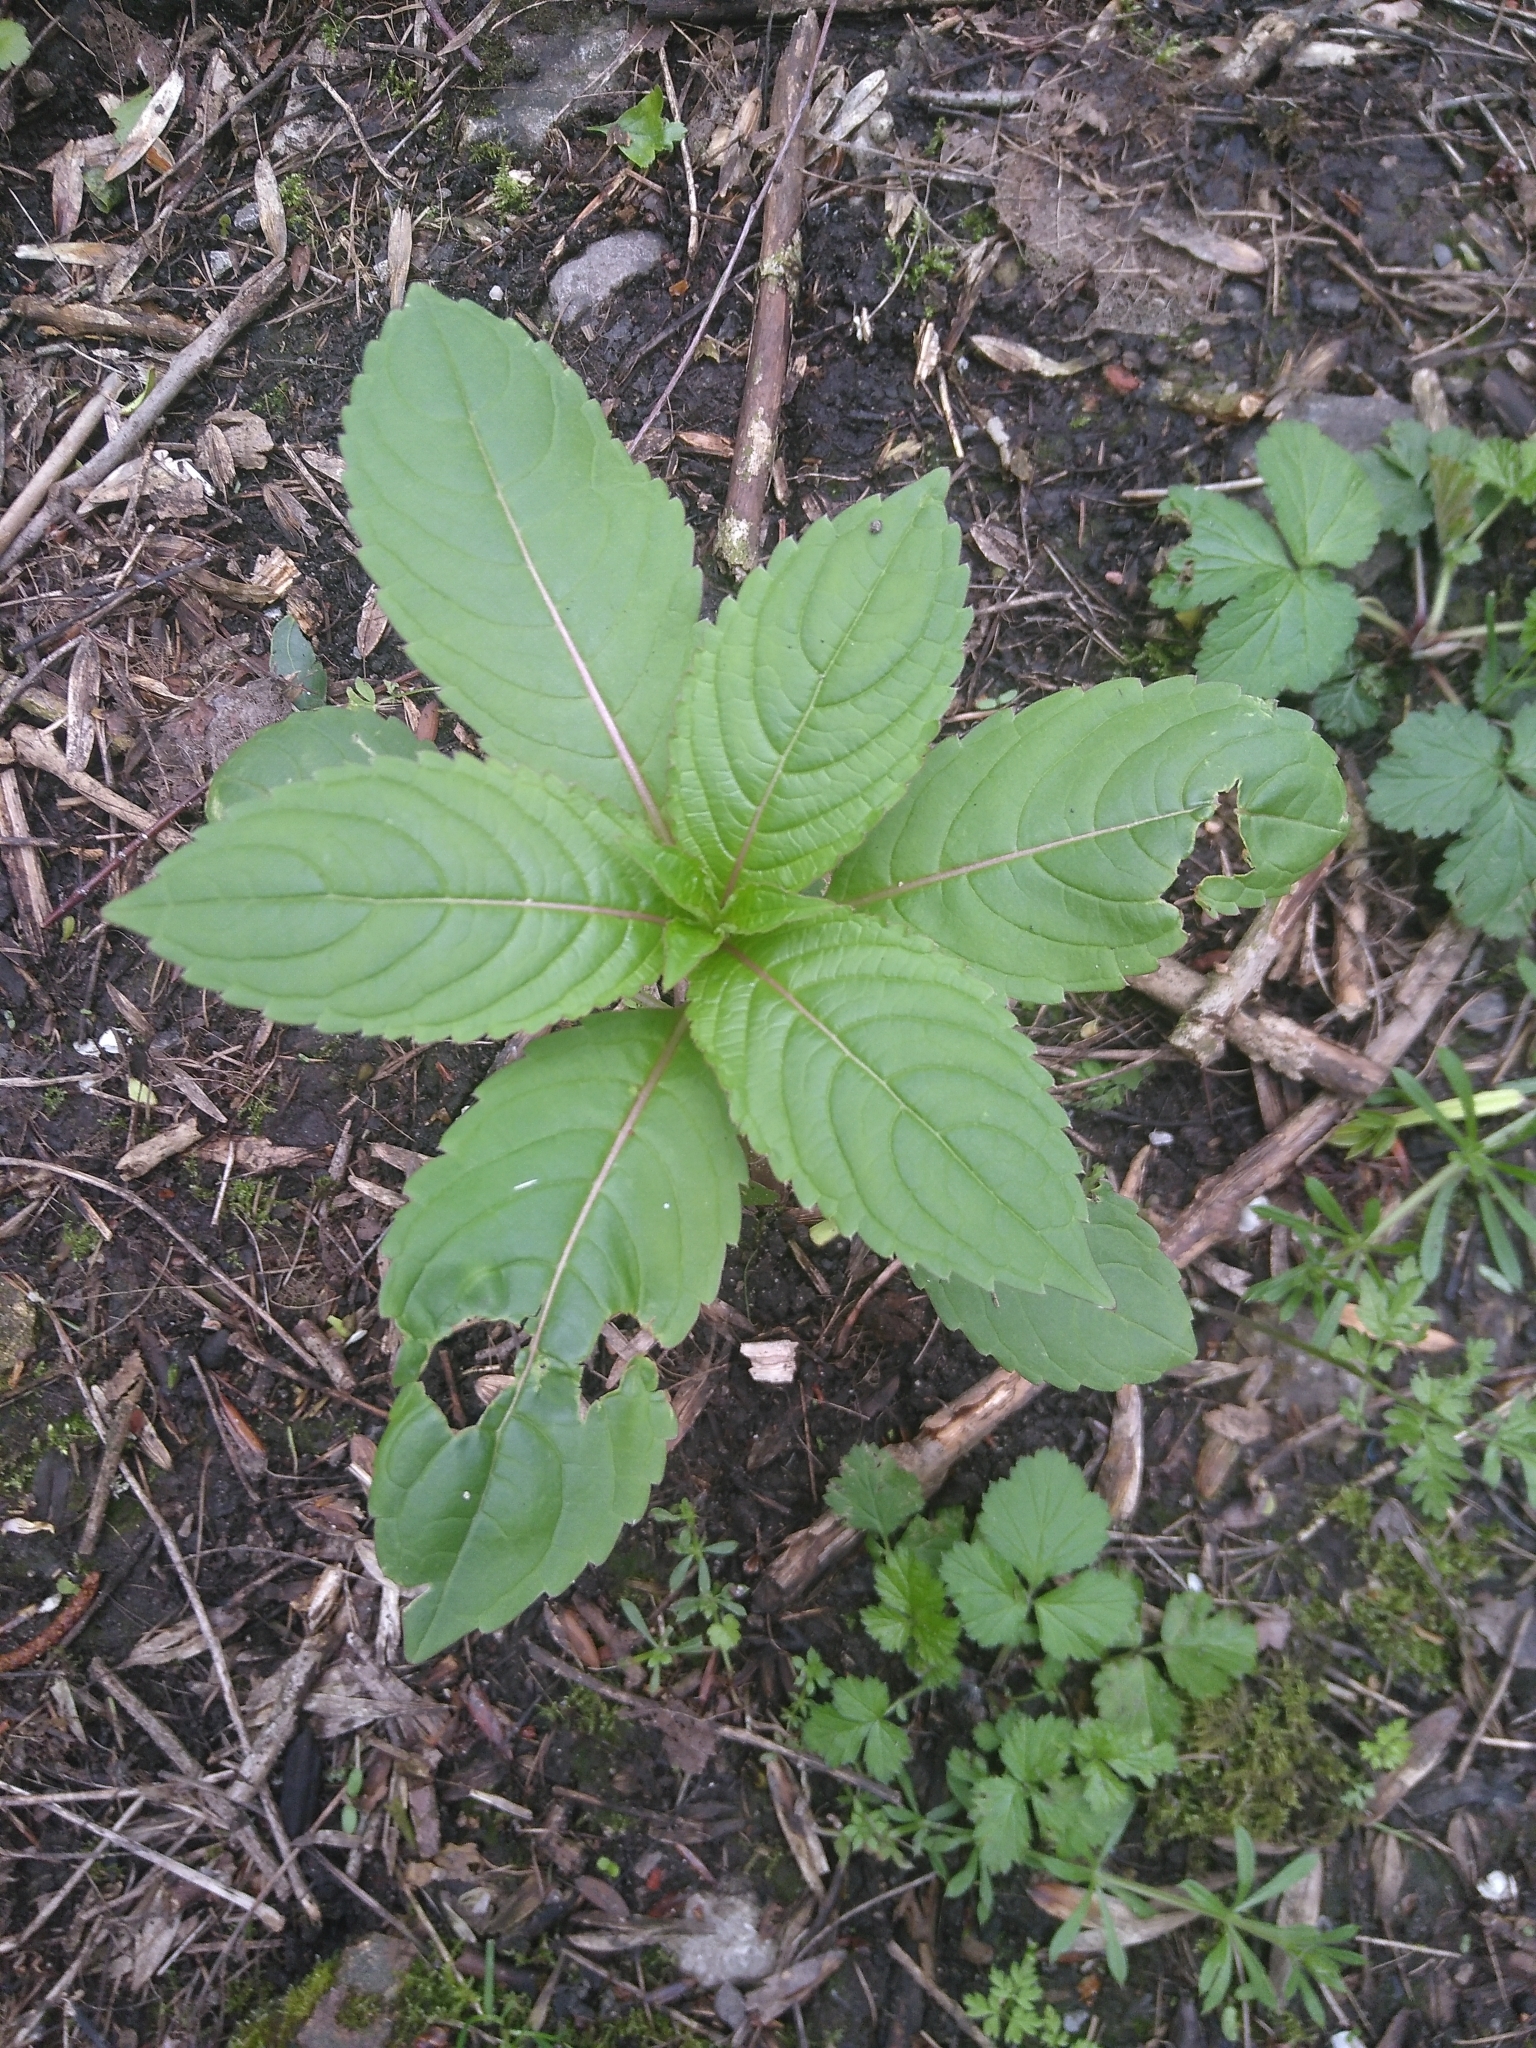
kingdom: Plantae
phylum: Tracheophyta
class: Magnoliopsida
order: Ericales
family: Balsaminaceae
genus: Impatiens
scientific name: Impatiens glandulifera
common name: Himalayan balsam
